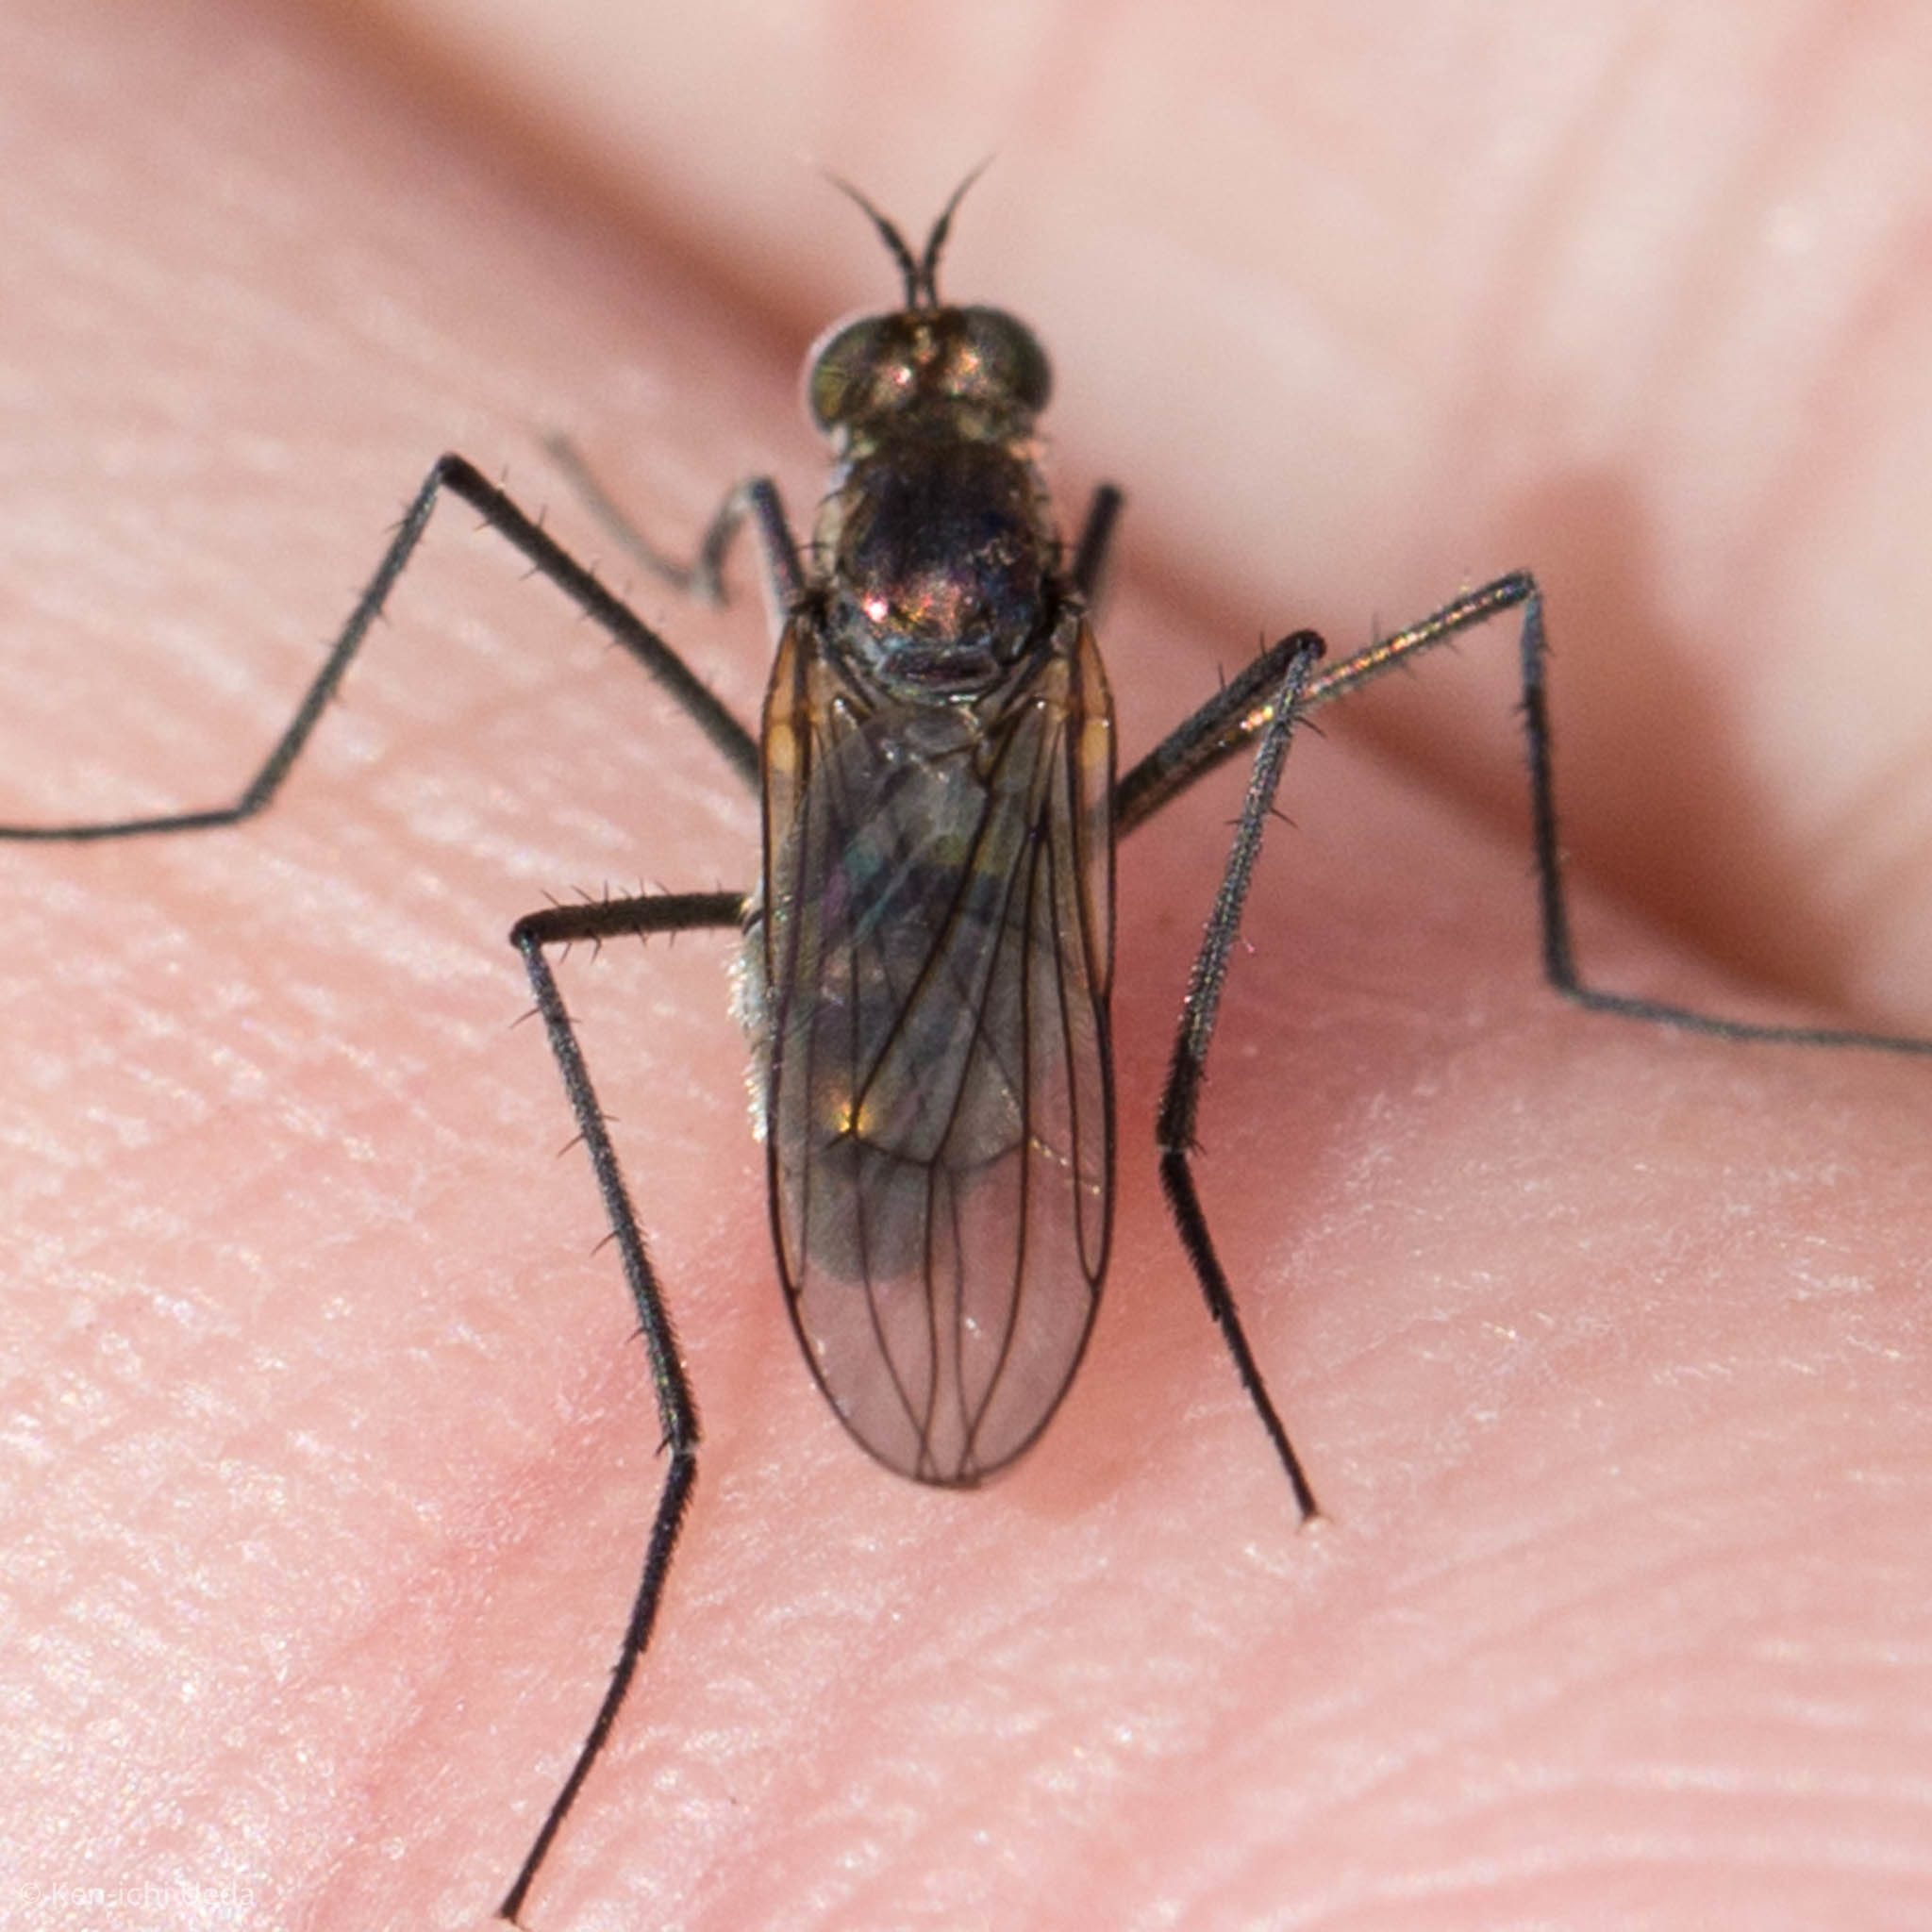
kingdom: Animalia
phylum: Arthropoda
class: Insecta
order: Diptera
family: Dolichopodidae
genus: Hydatostega
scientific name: Hydatostega viridiflos
